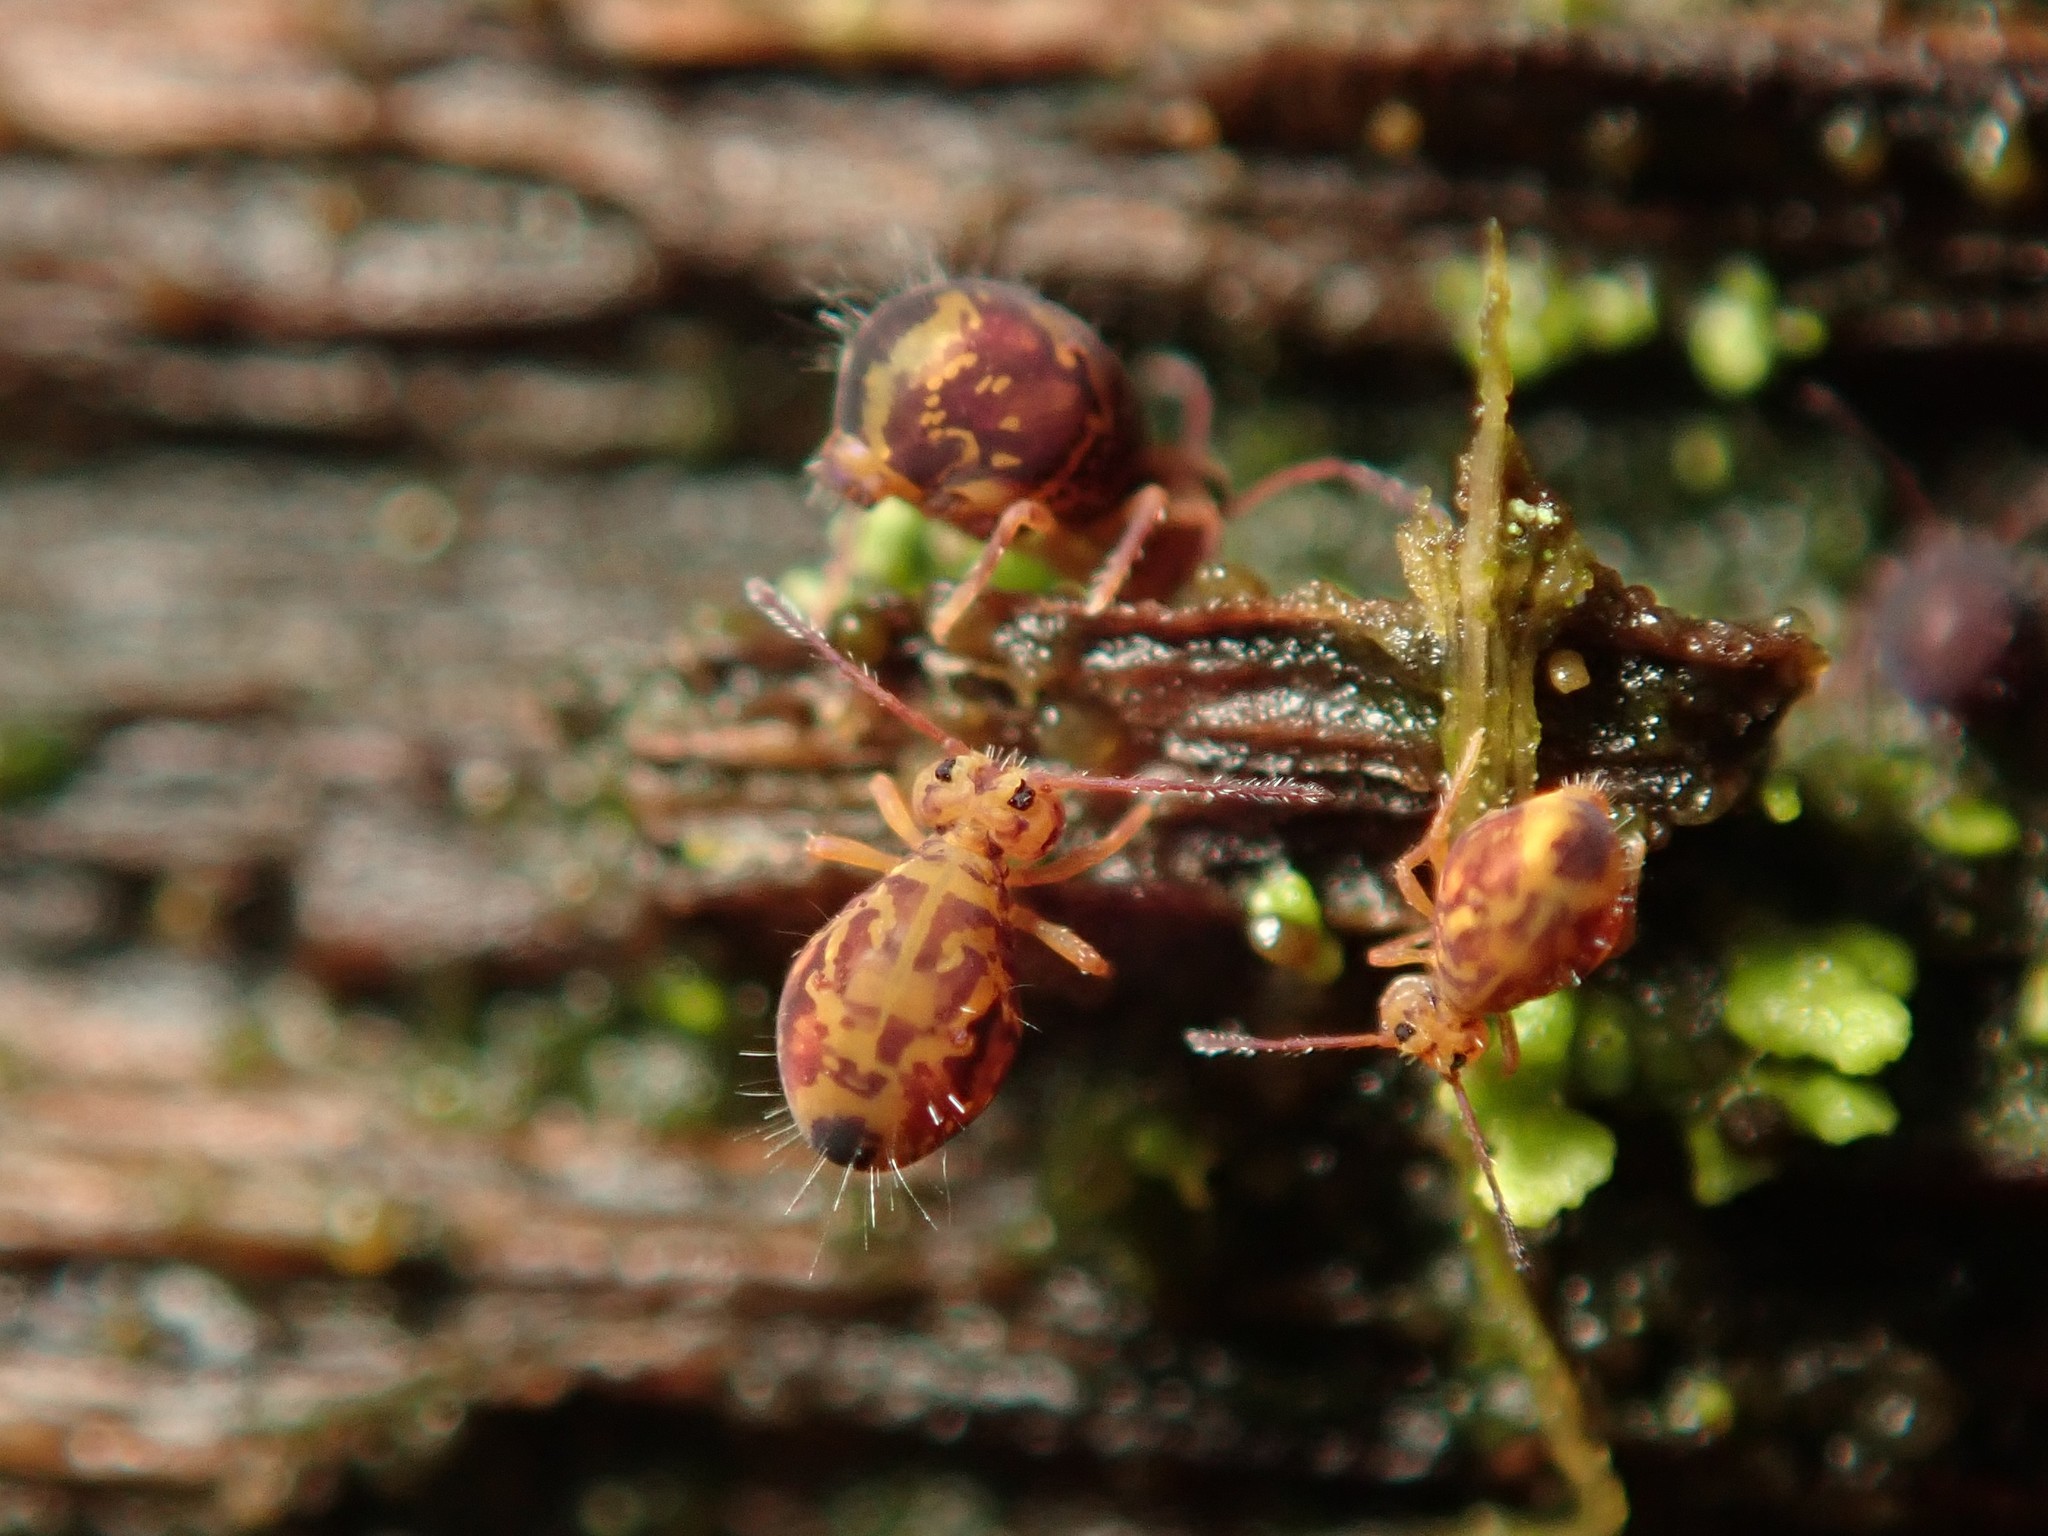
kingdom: Animalia
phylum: Arthropoda
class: Collembola
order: Symphypleona
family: Dicyrtomidae
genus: Dicyrtomina
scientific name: Dicyrtomina ornata
